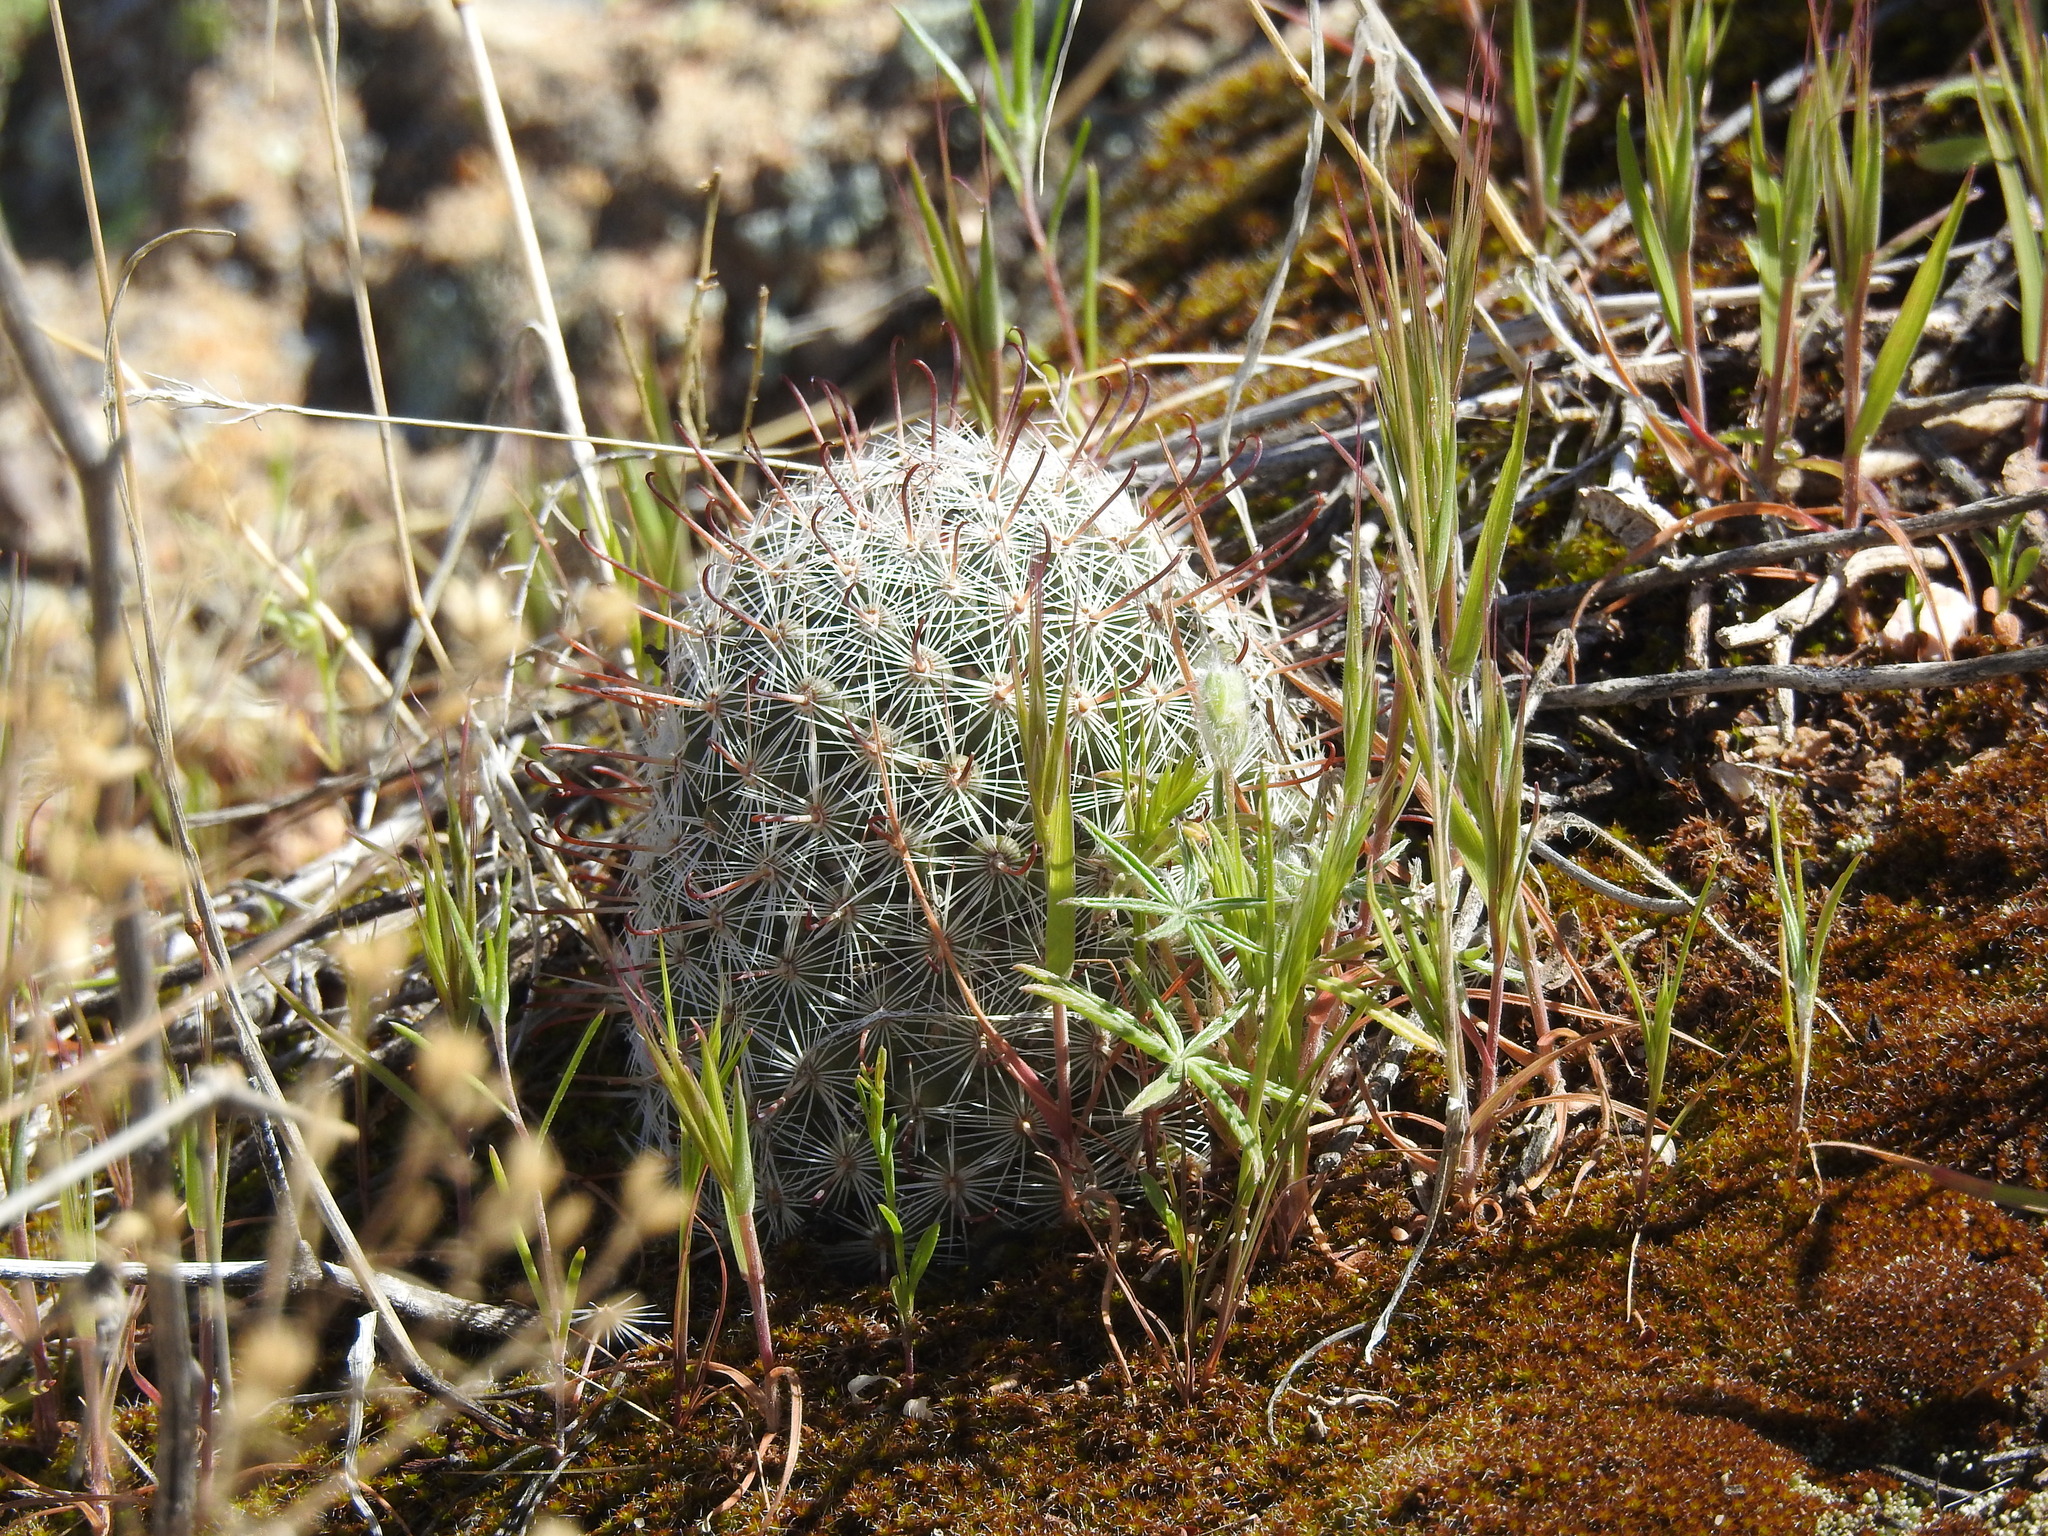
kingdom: Plantae
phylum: Tracheophyta
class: Magnoliopsida
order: Caryophyllales
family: Cactaceae
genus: Cochemiea
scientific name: Cochemiea grahamii
